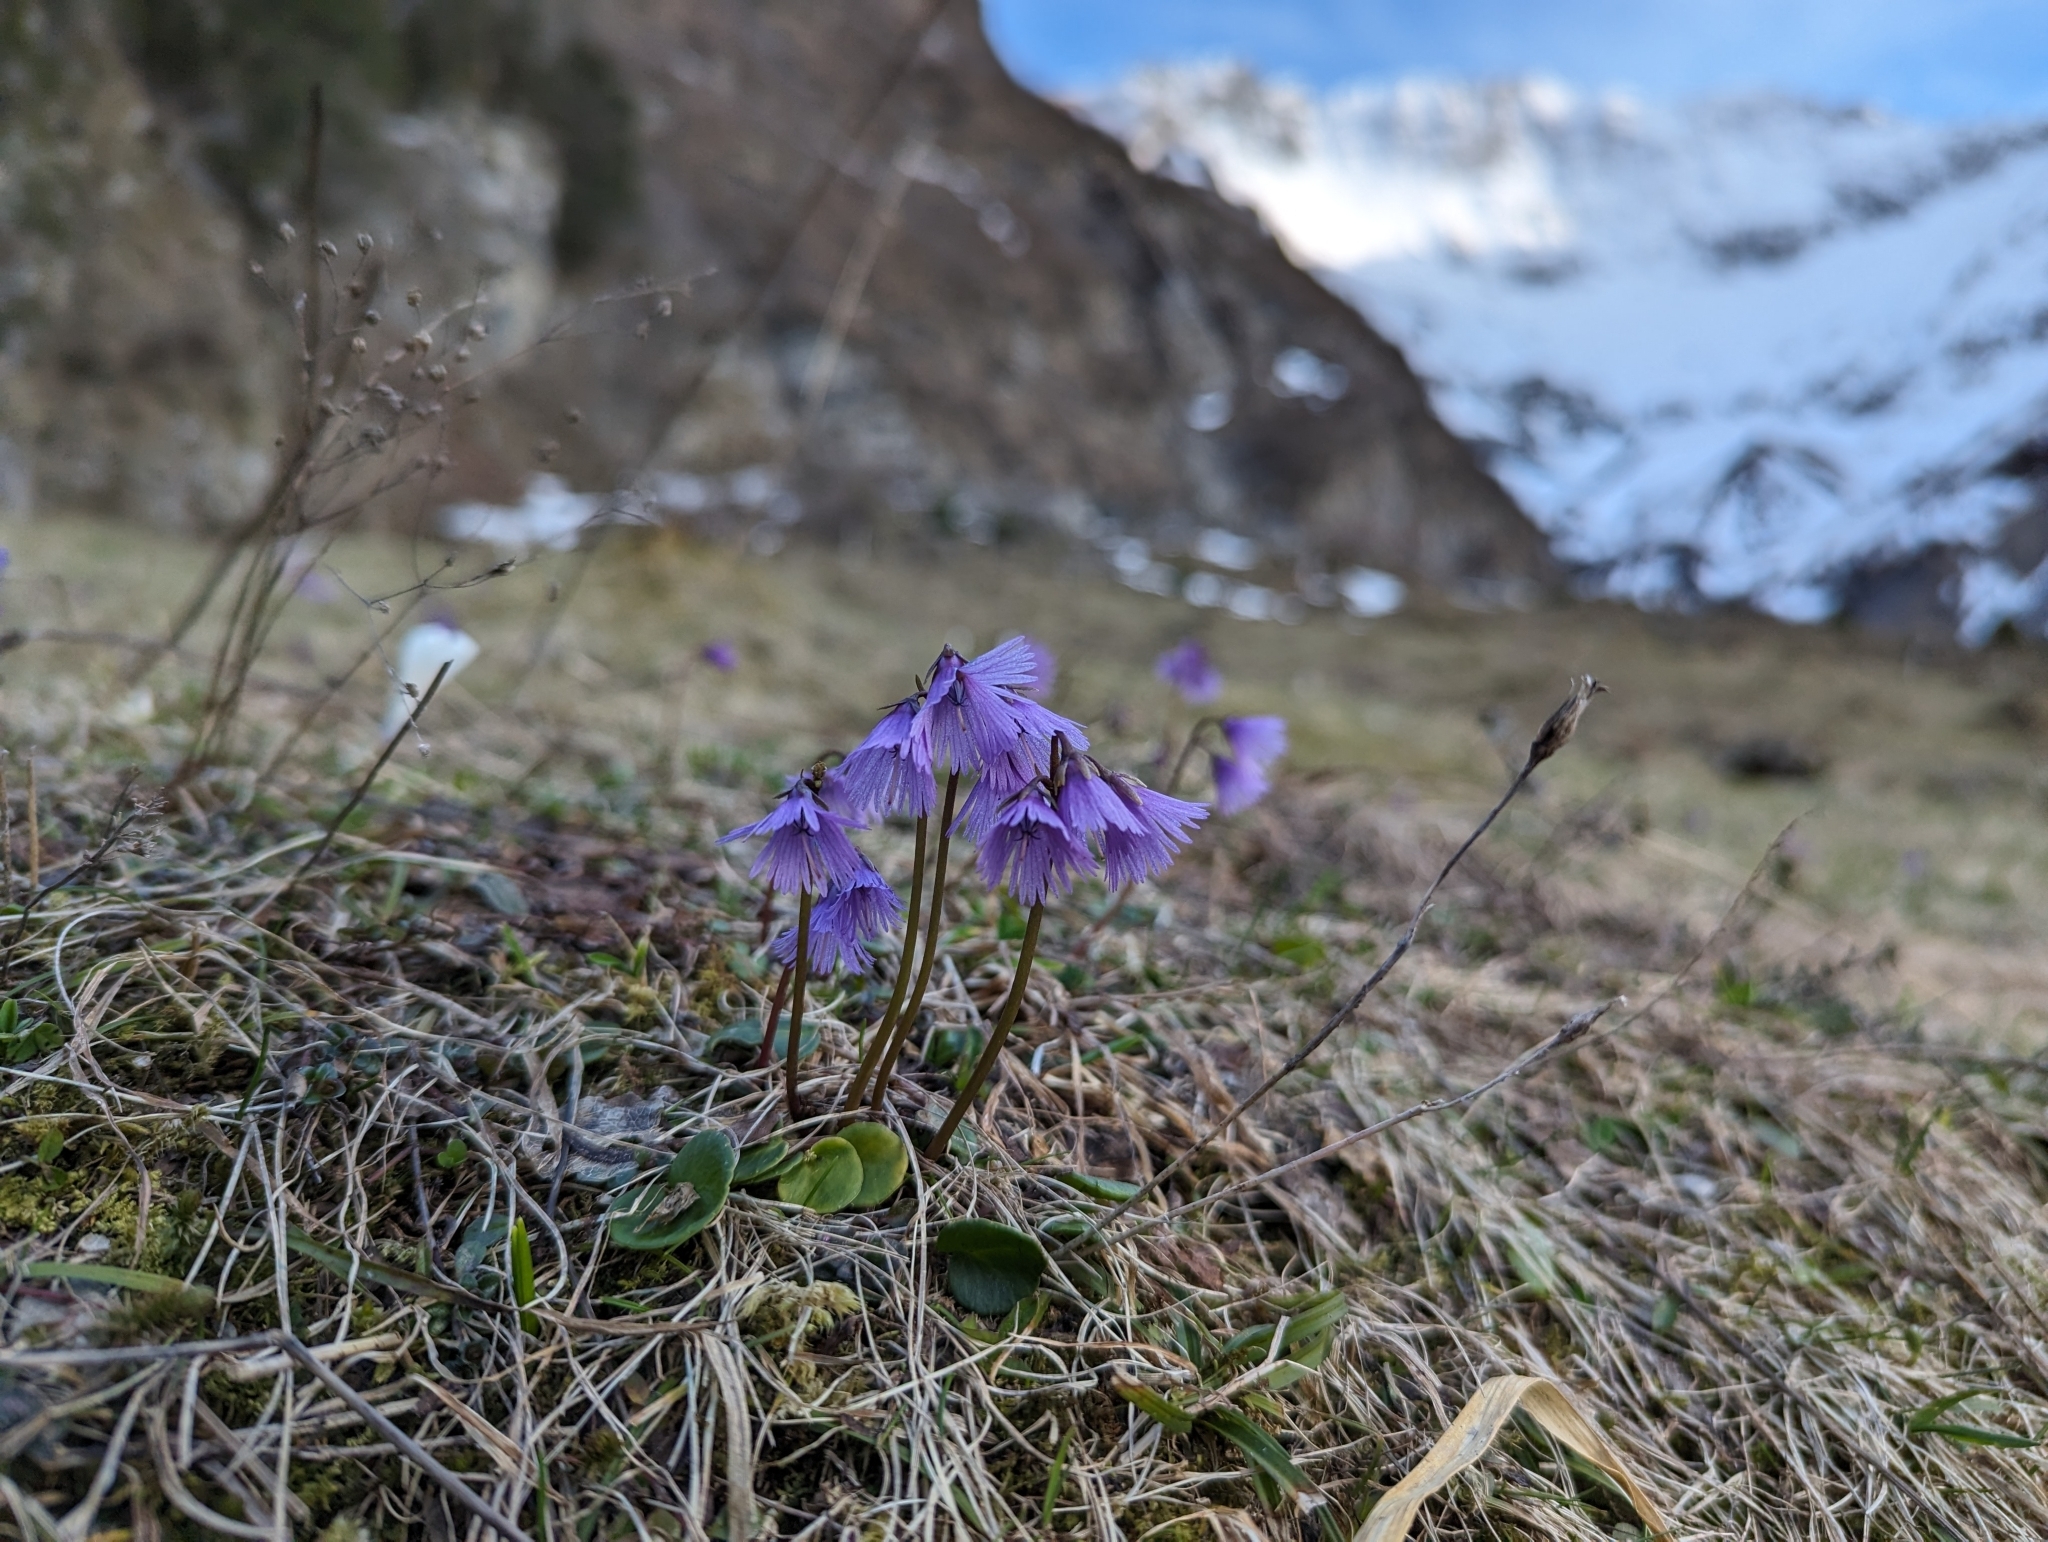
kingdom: Plantae
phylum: Tracheophyta
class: Magnoliopsida
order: Ericales
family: Primulaceae
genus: Soldanella
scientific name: Soldanella alpina
